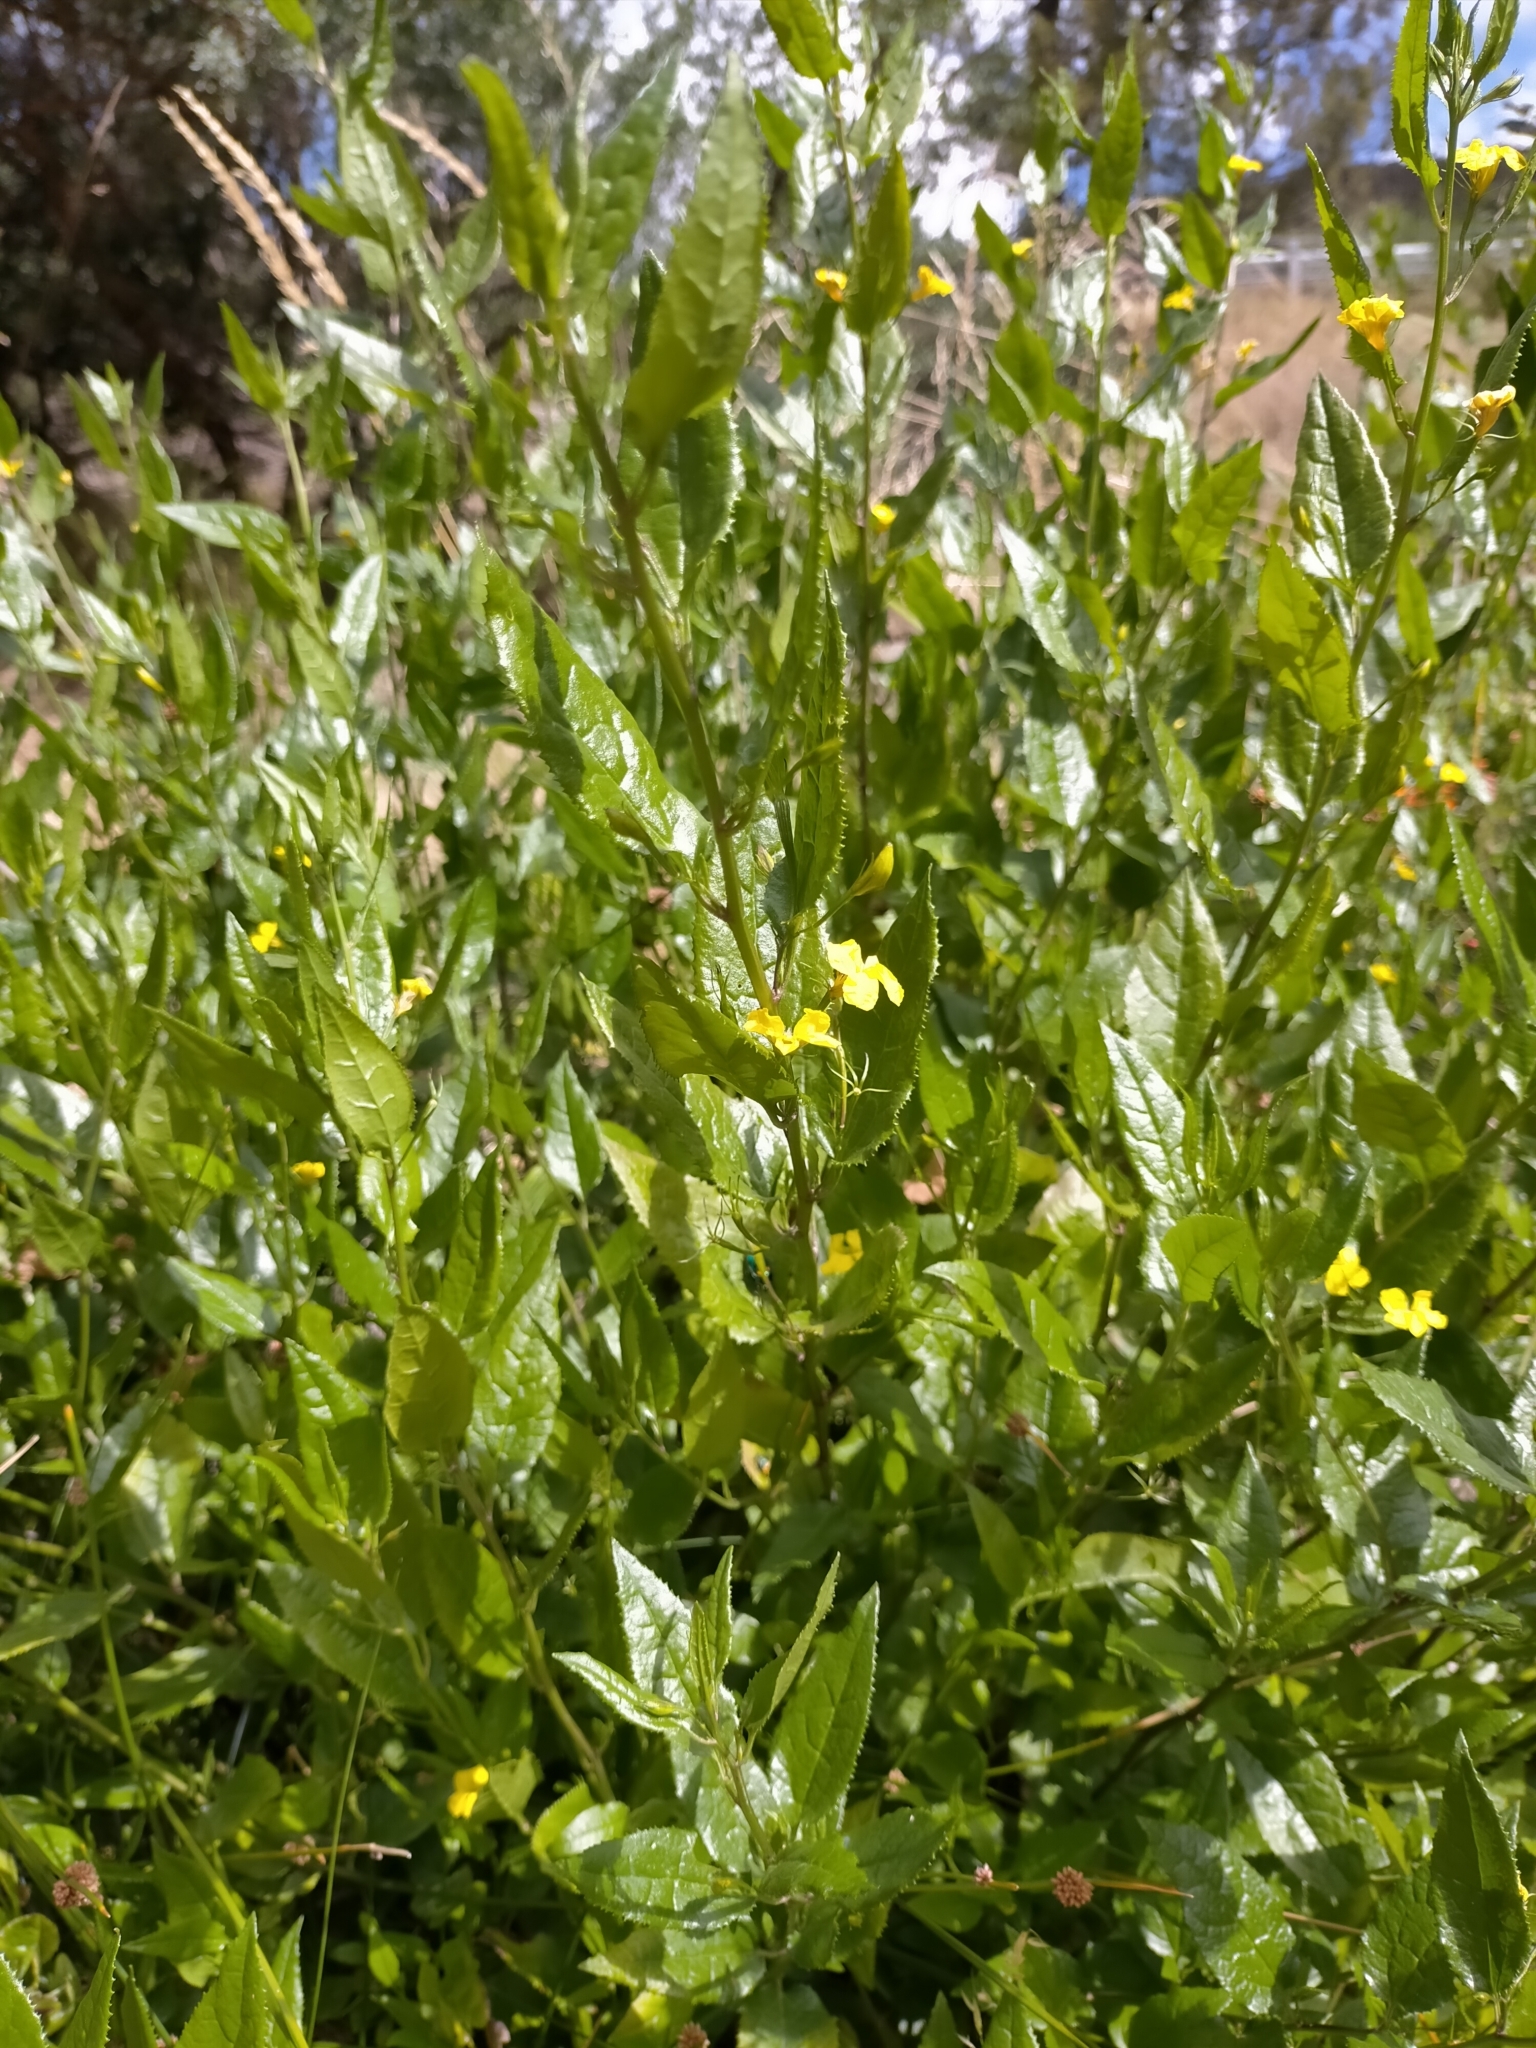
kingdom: Plantae
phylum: Tracheophyta
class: Magnoliopsida
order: Asterales
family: Goodeniaceae
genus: Goodenia
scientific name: Goodenia ovata
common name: Hop goodenia
